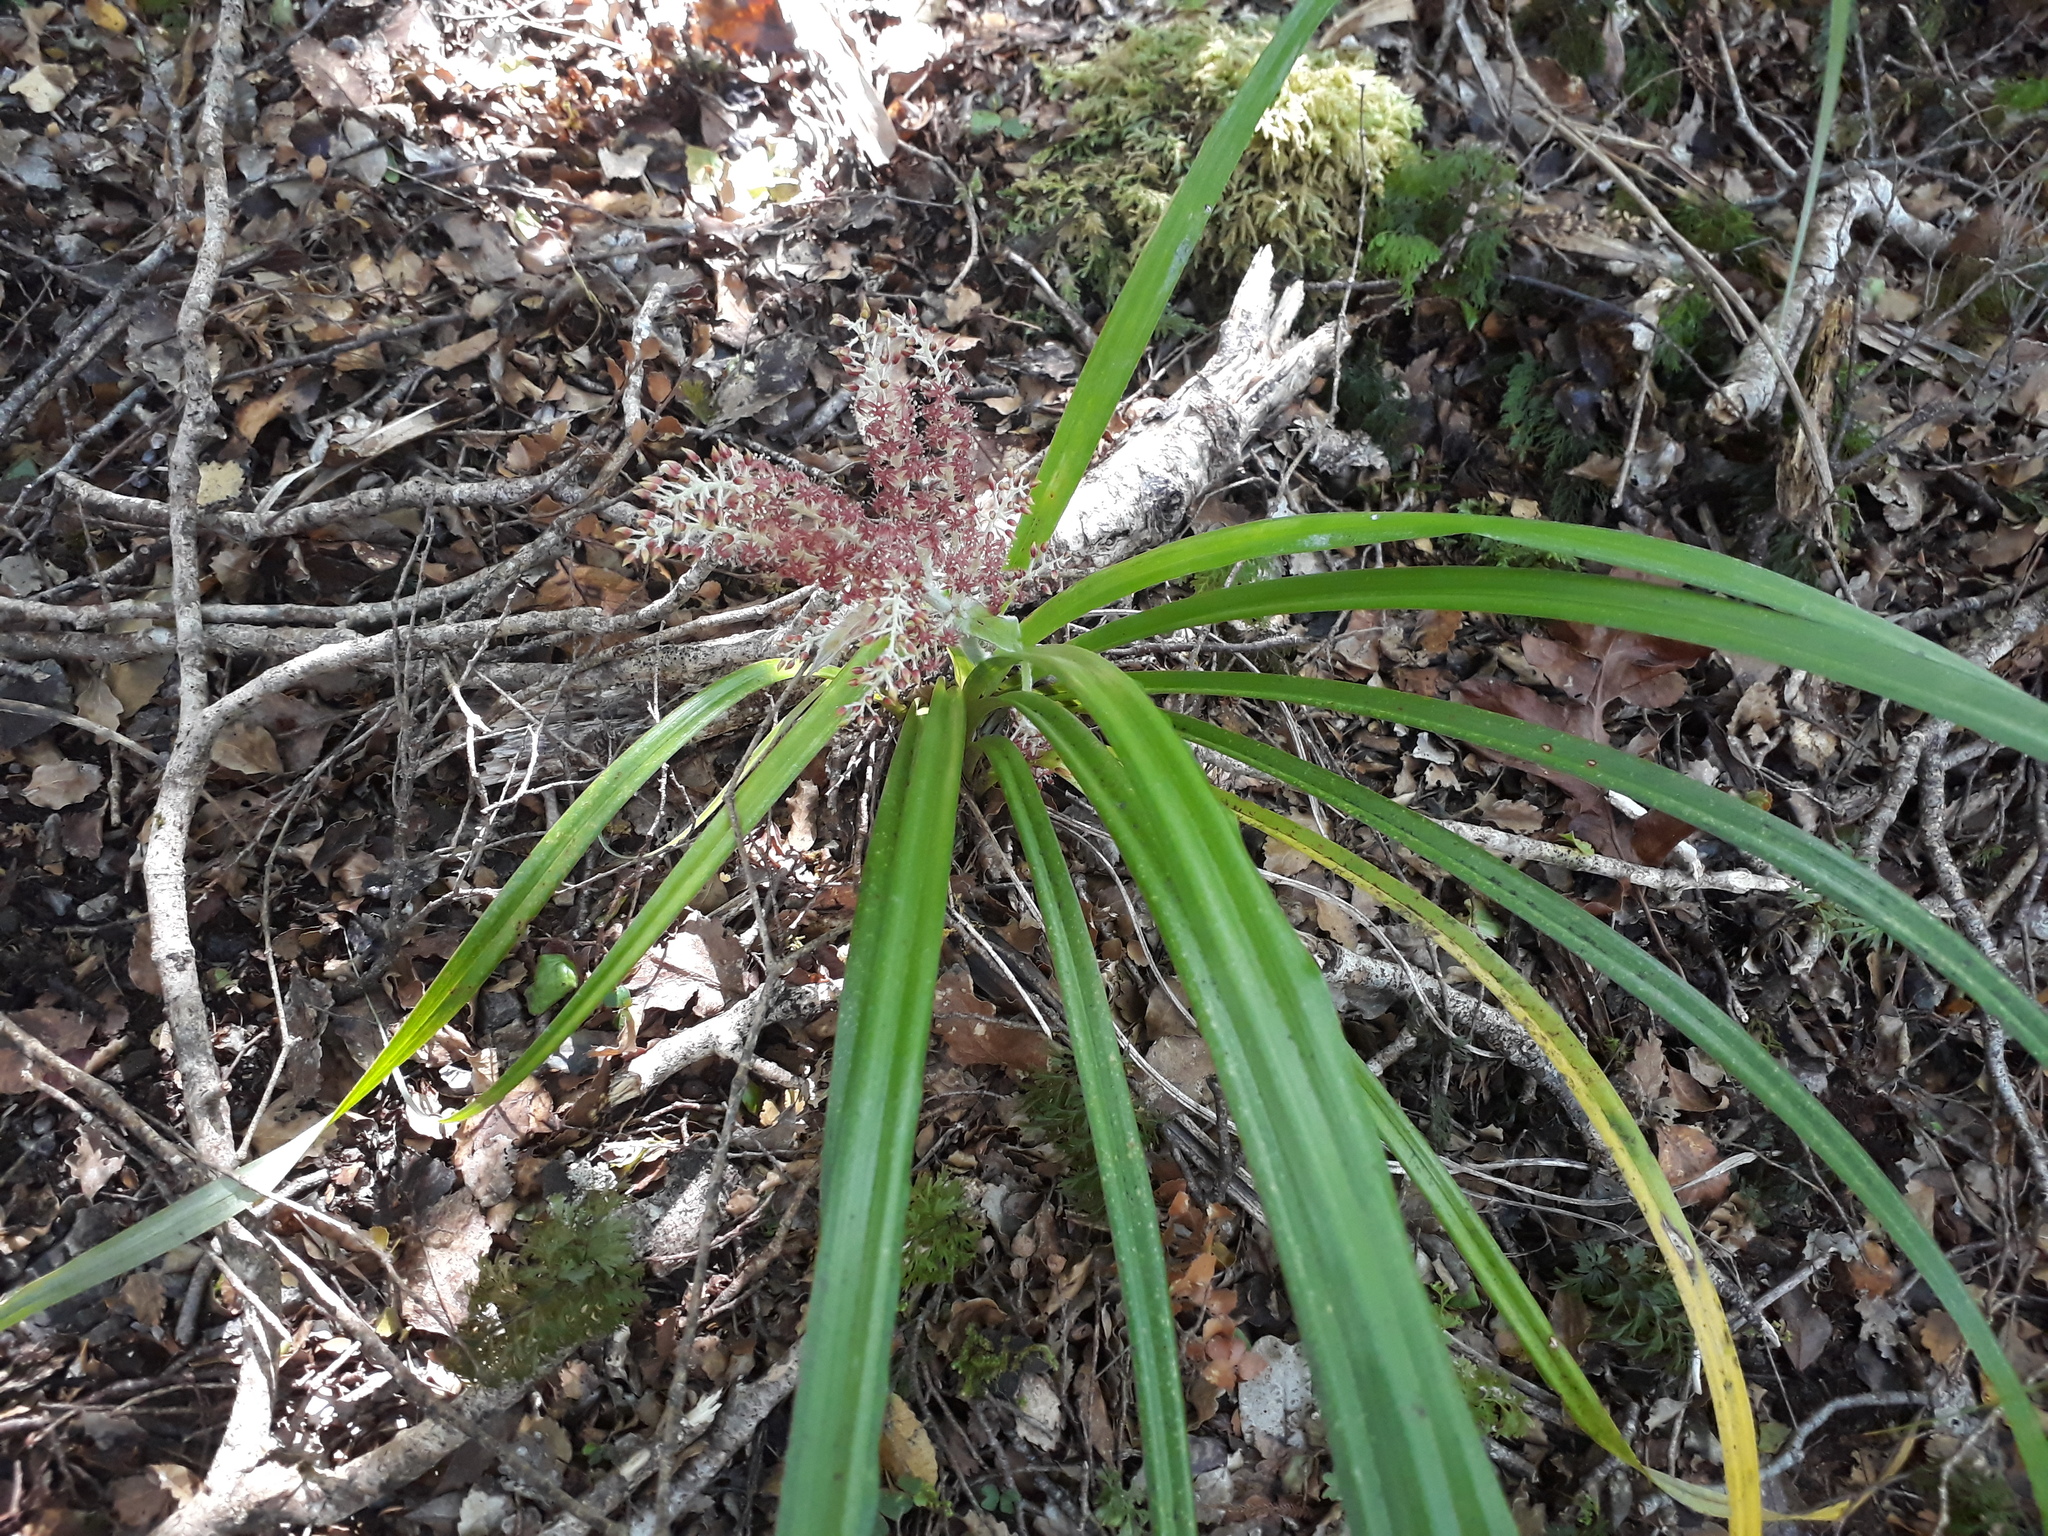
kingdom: Plantae
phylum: Tracheophyta
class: Liliopsida
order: Asparagales
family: Asteliaceae
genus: Astelia
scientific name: Astelia solandri
